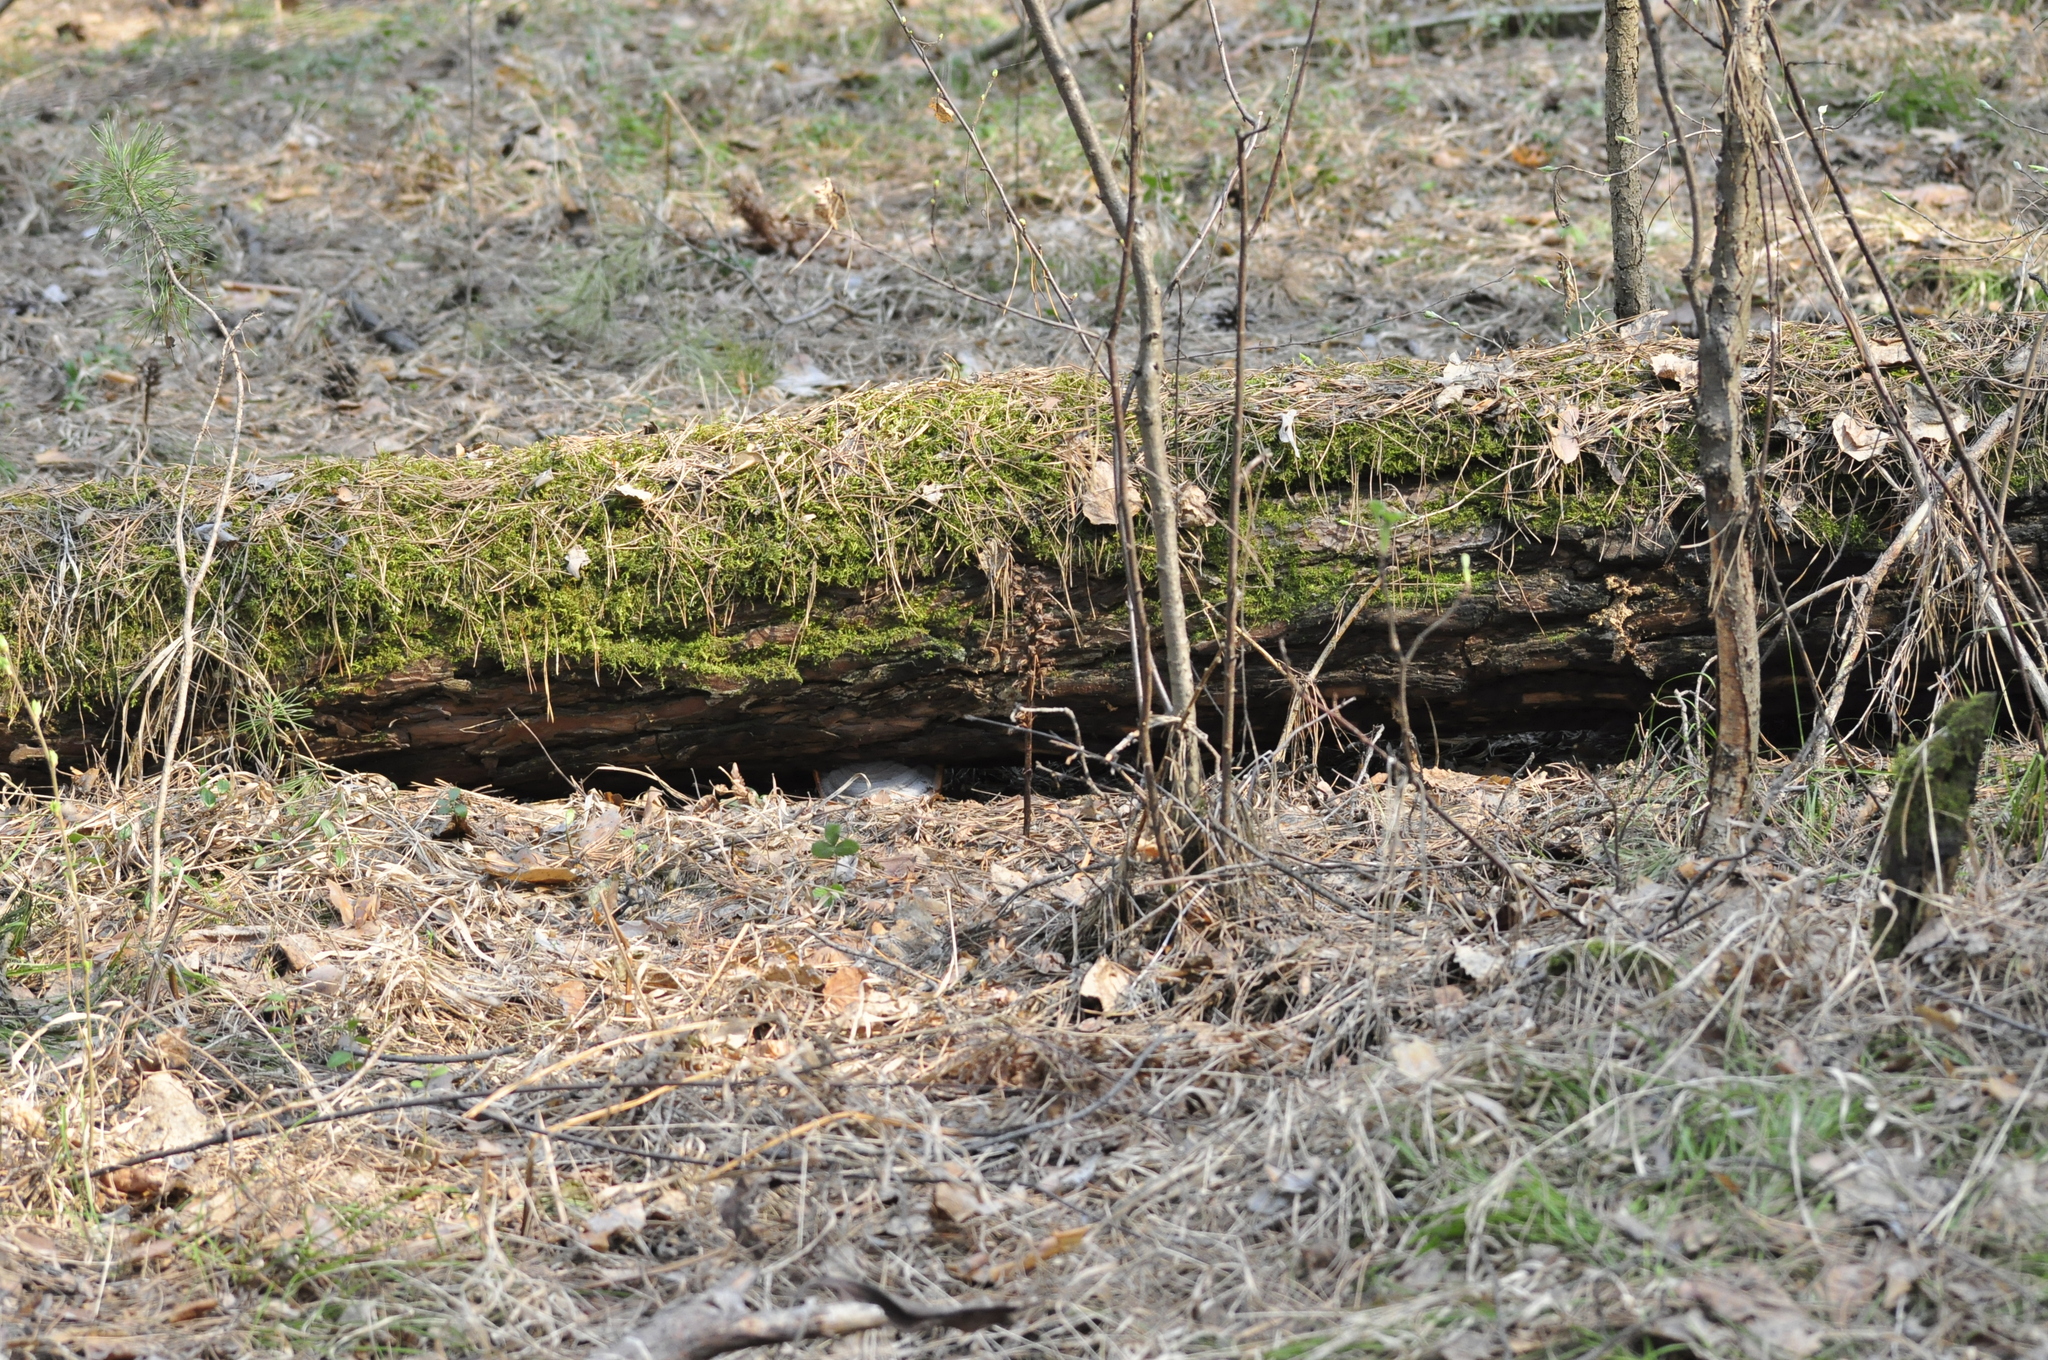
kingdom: Plantae
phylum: Tracheophyta
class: Liliopsida
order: Asparagales
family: Orchidaceae
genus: Neottia
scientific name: Neottia nidus-avis
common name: Bird's-nest orchid
